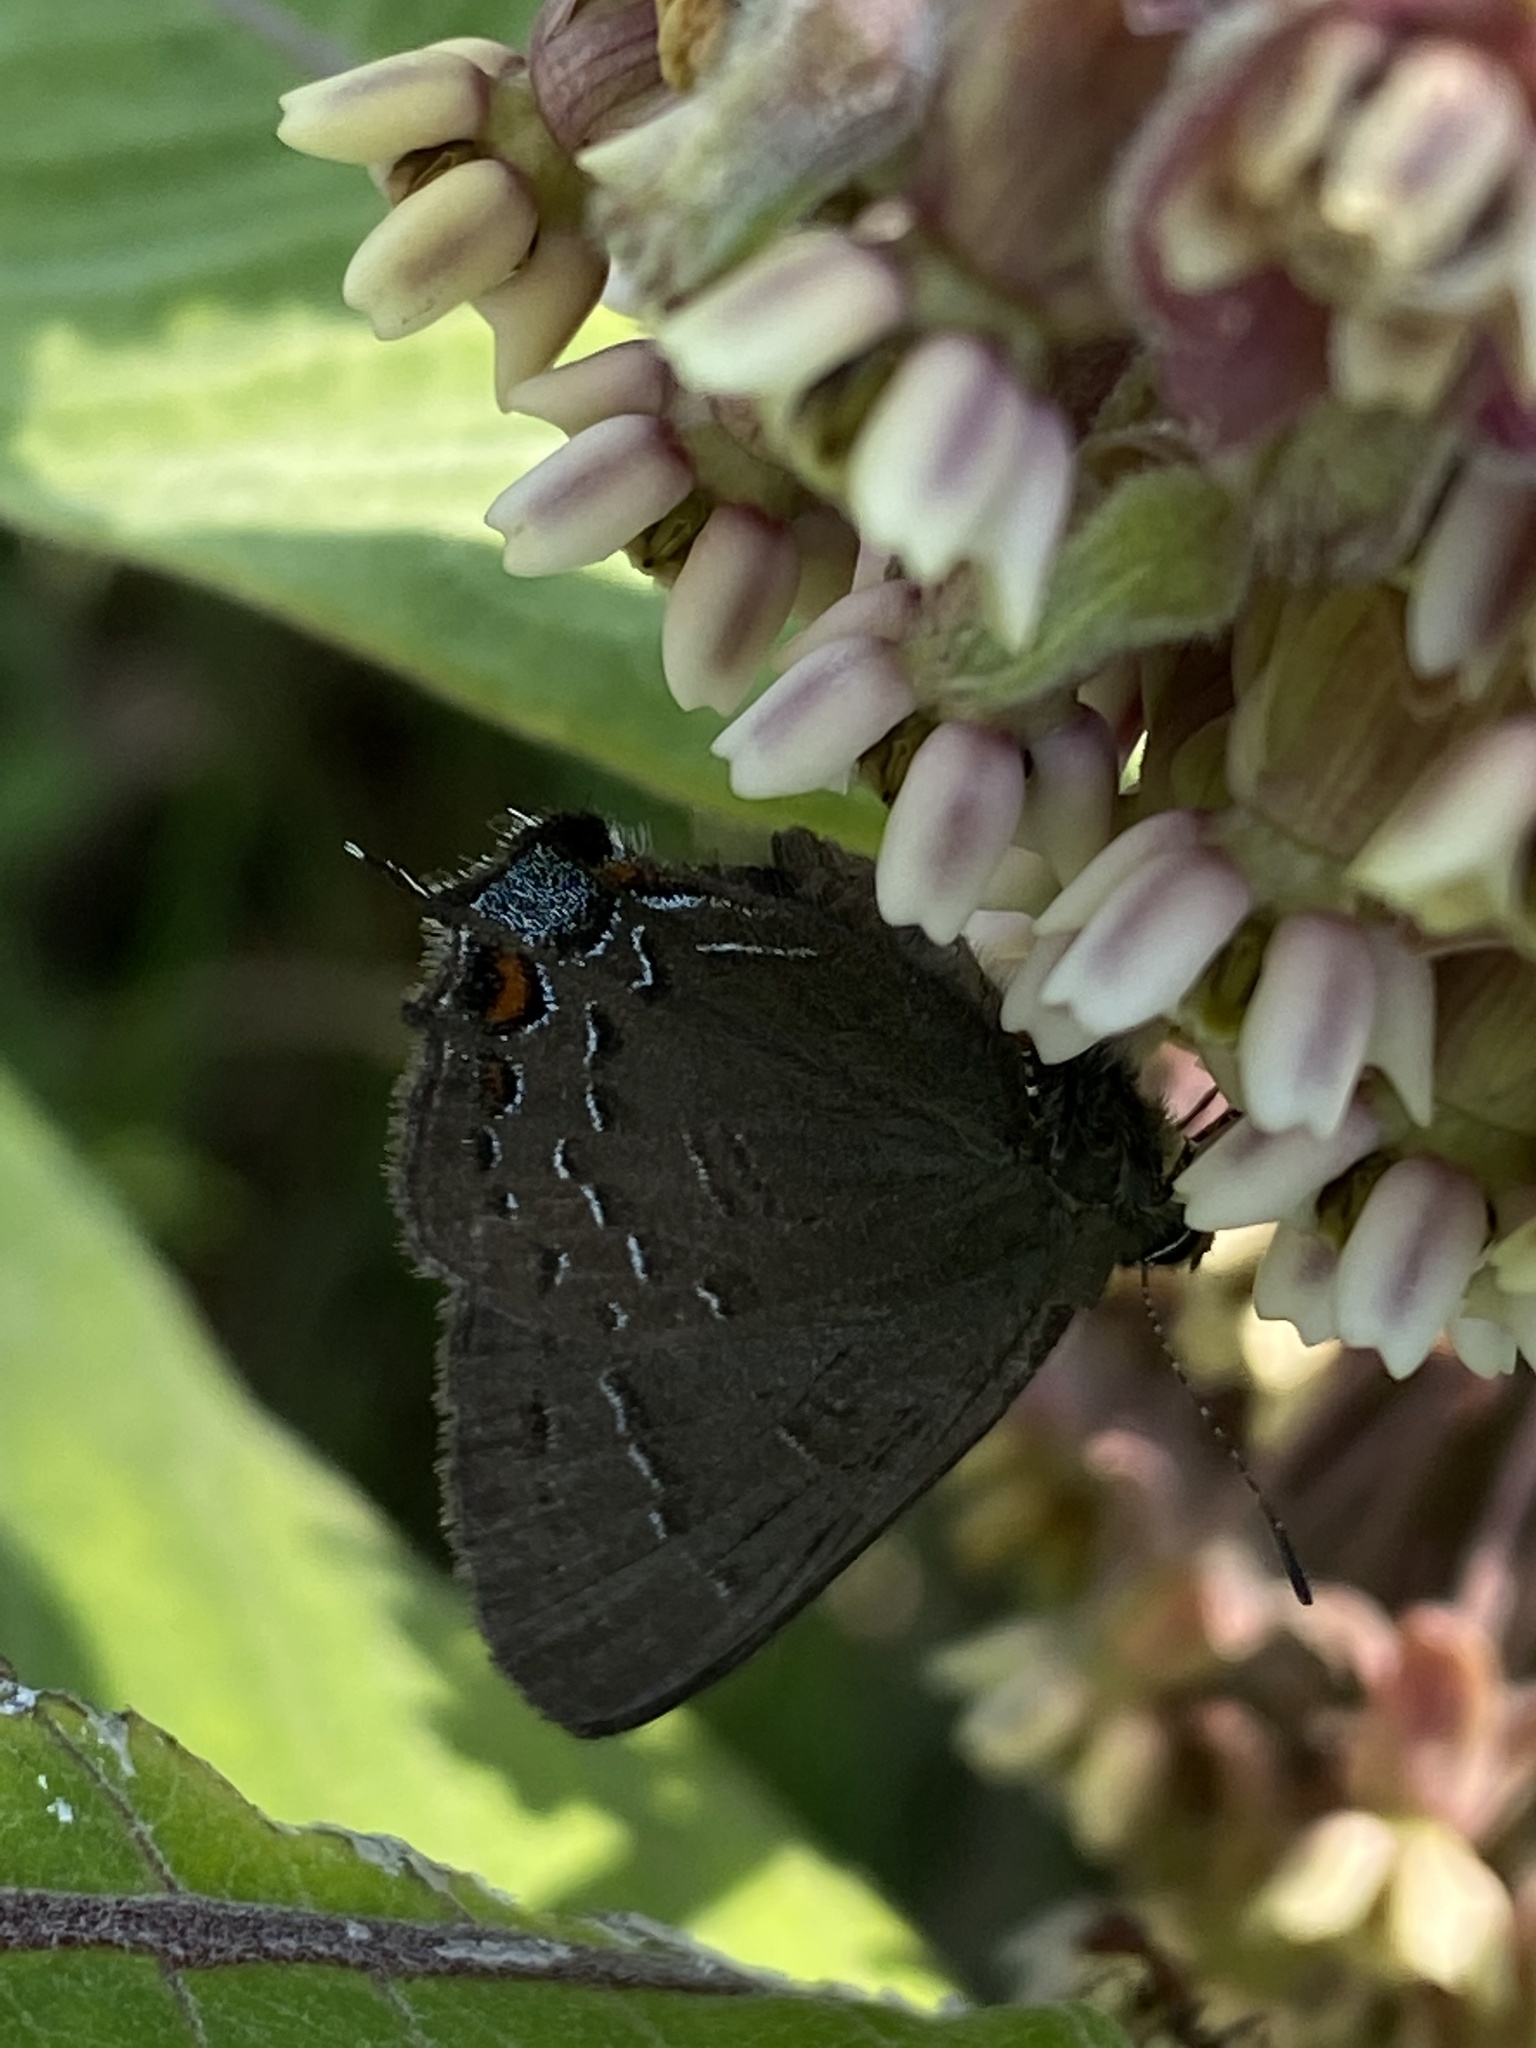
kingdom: Animalia
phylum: Arthropoda
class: Insecta
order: Lepidoptera
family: Lycaenidae
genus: Satyrium
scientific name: Satyrium calanus
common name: Banded hairstreak
